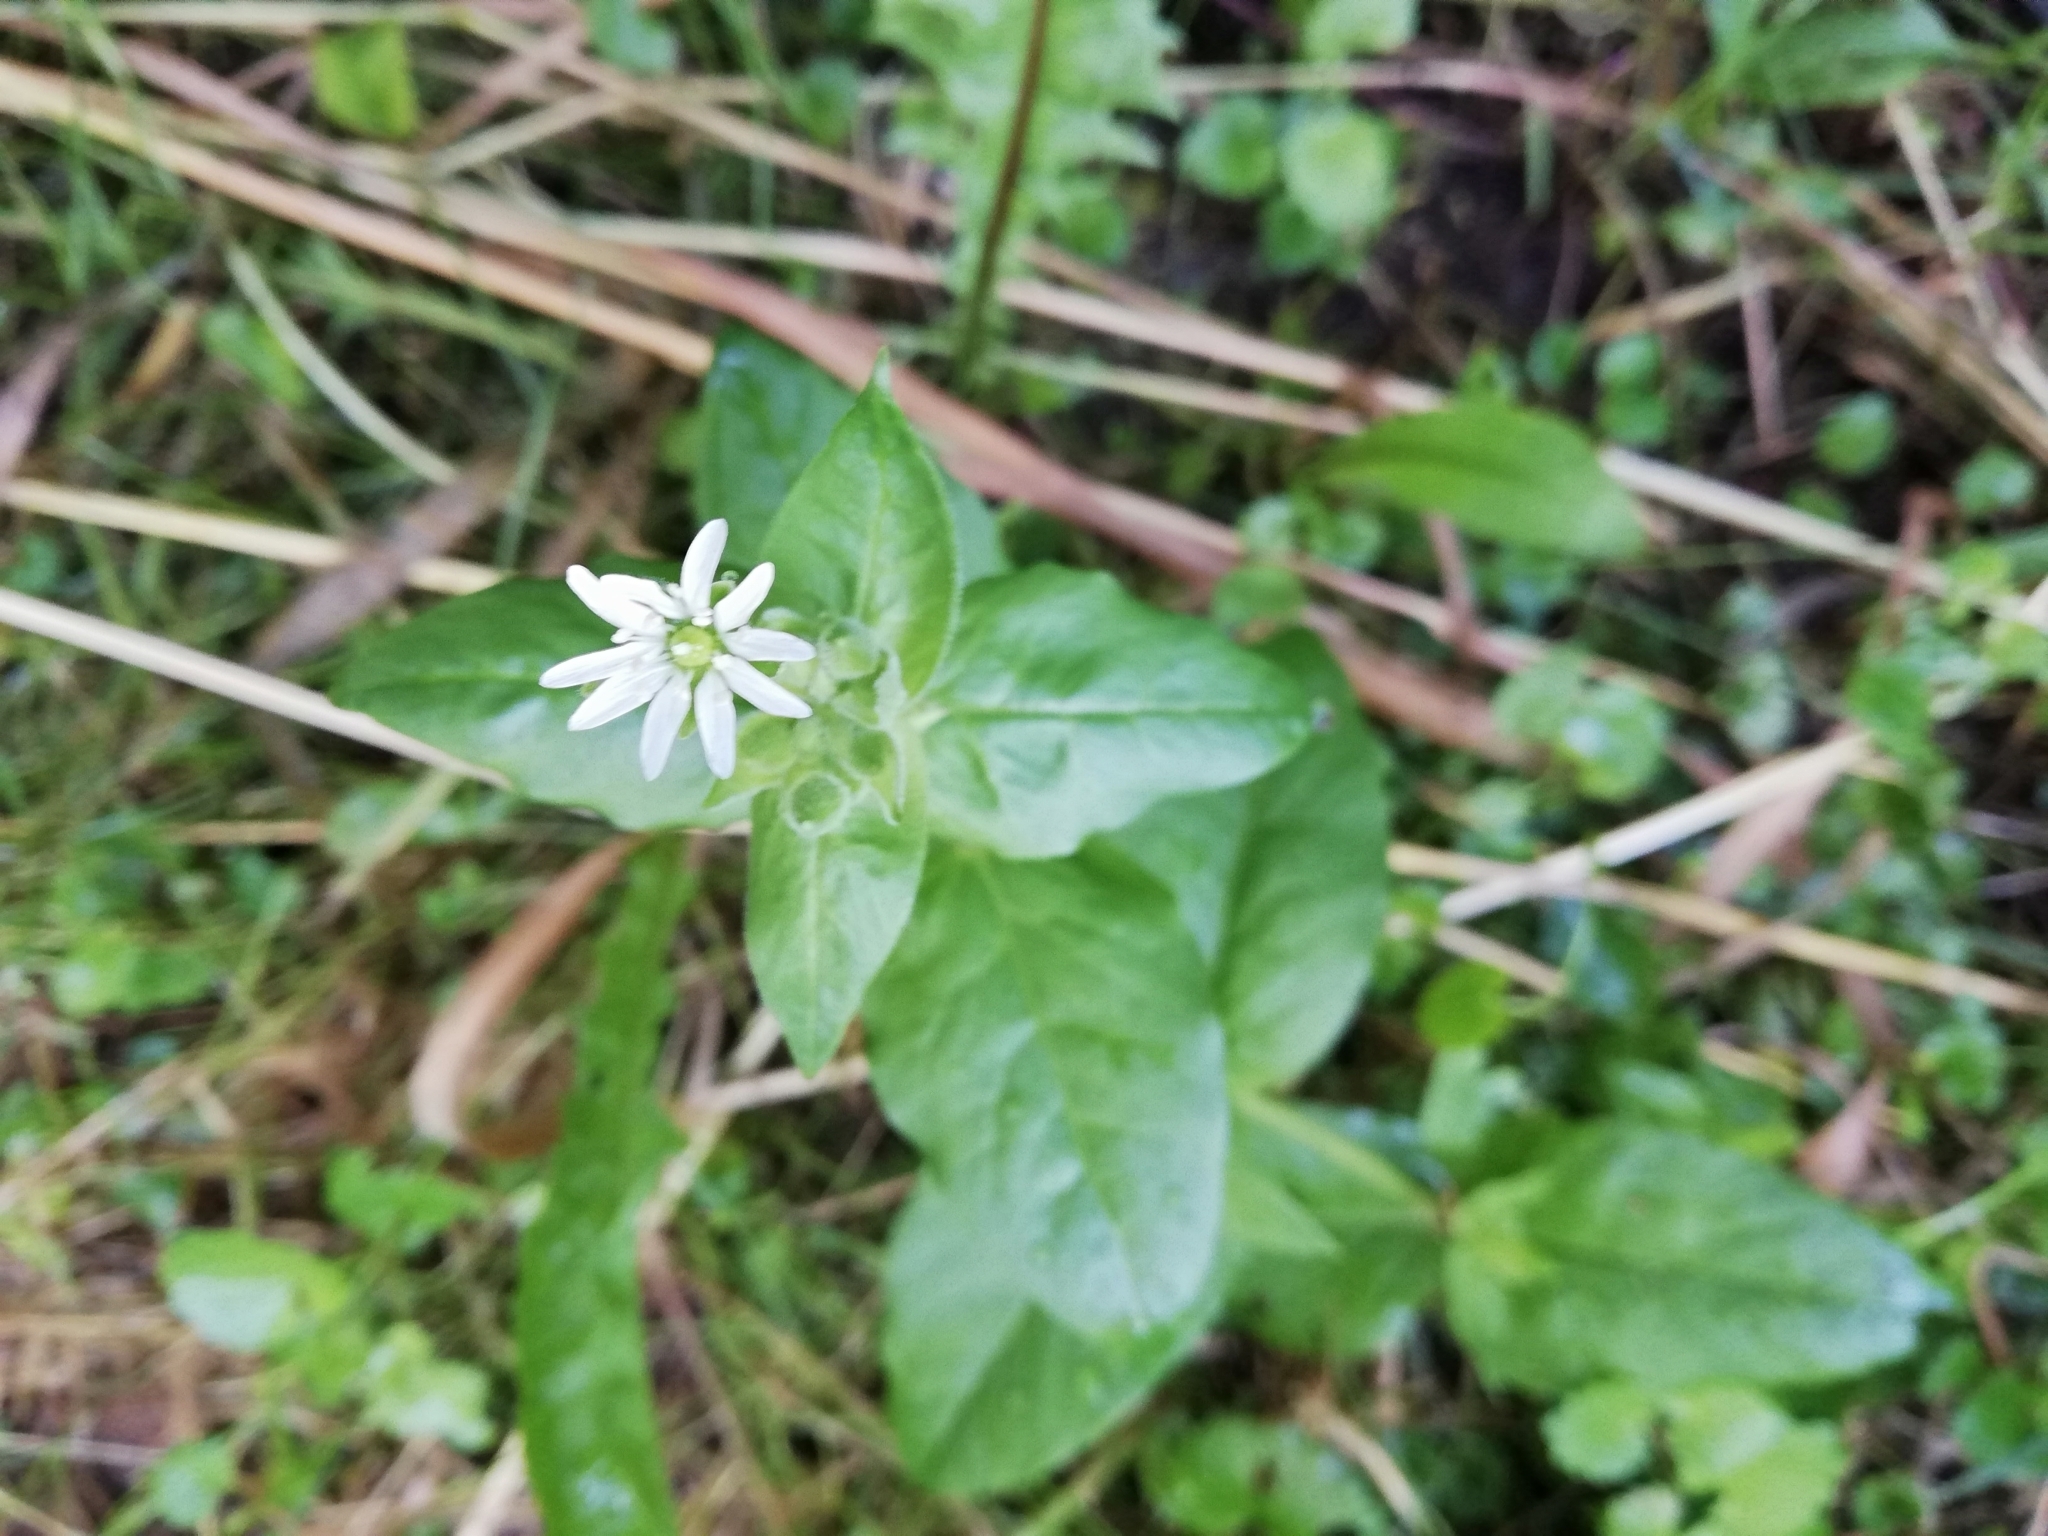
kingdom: Plantae
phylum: Tracheophyta
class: Magnoliopsida
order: Caryophyllales
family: Caryophyllaceae
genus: Stellaria
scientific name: Stellaria aquatica
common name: Water chickweed
